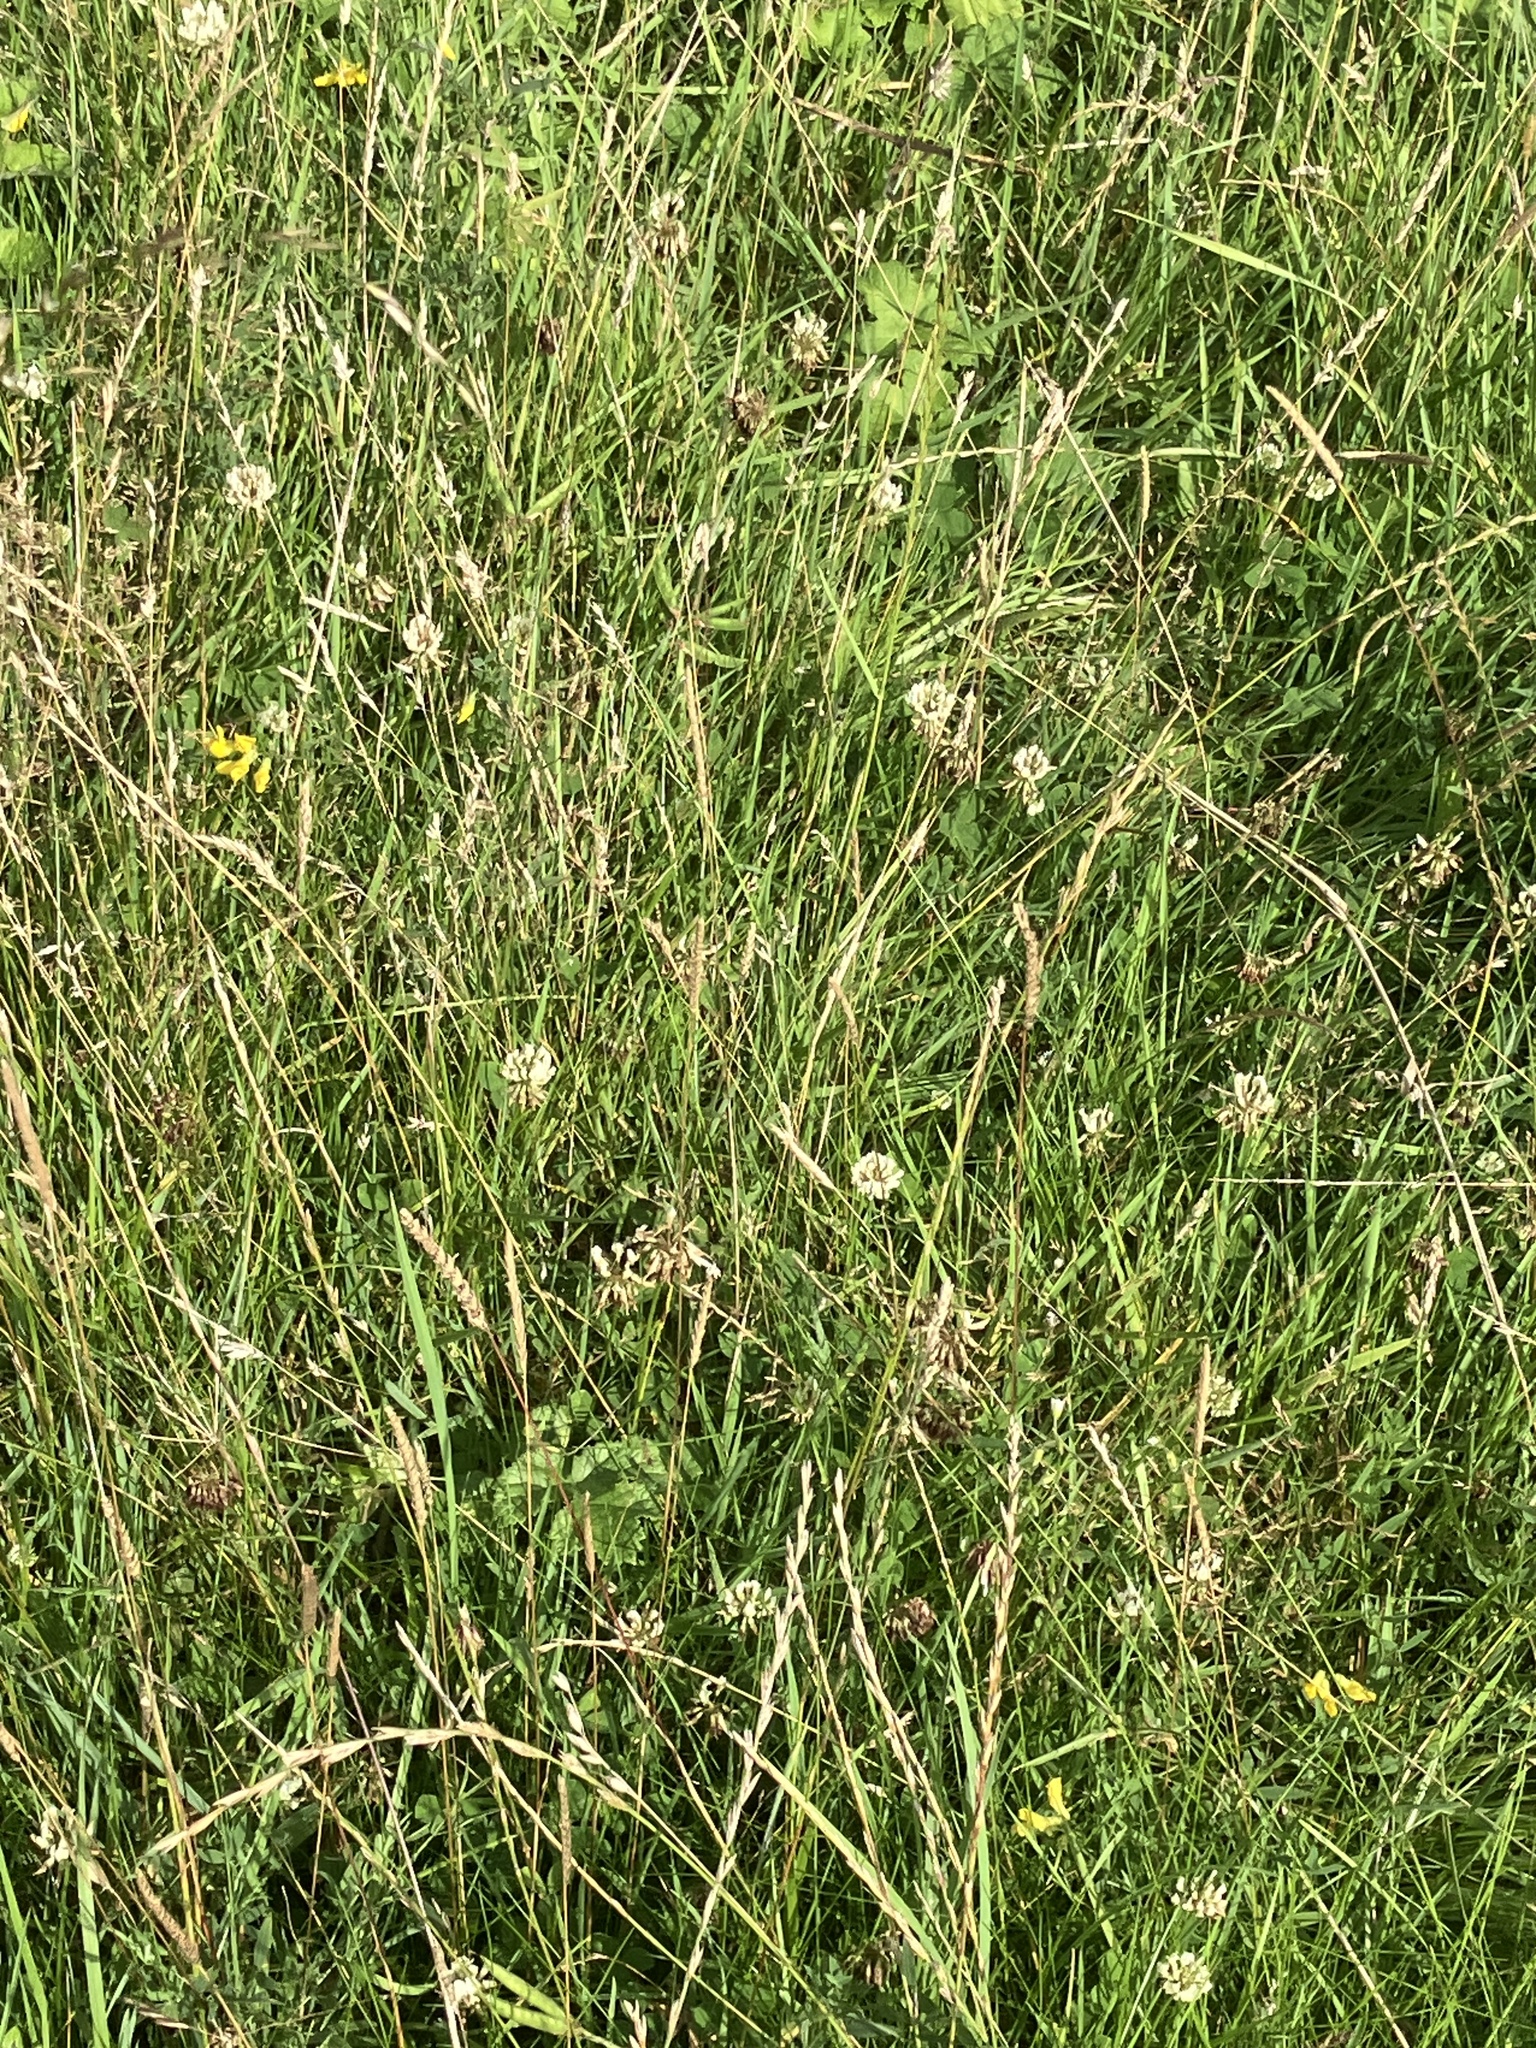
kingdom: Plantae
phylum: Tracheophyta
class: Magnoliopsida
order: Fabales
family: Fabaceae
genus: Trifolium
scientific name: Trifolium repens
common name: White clover
